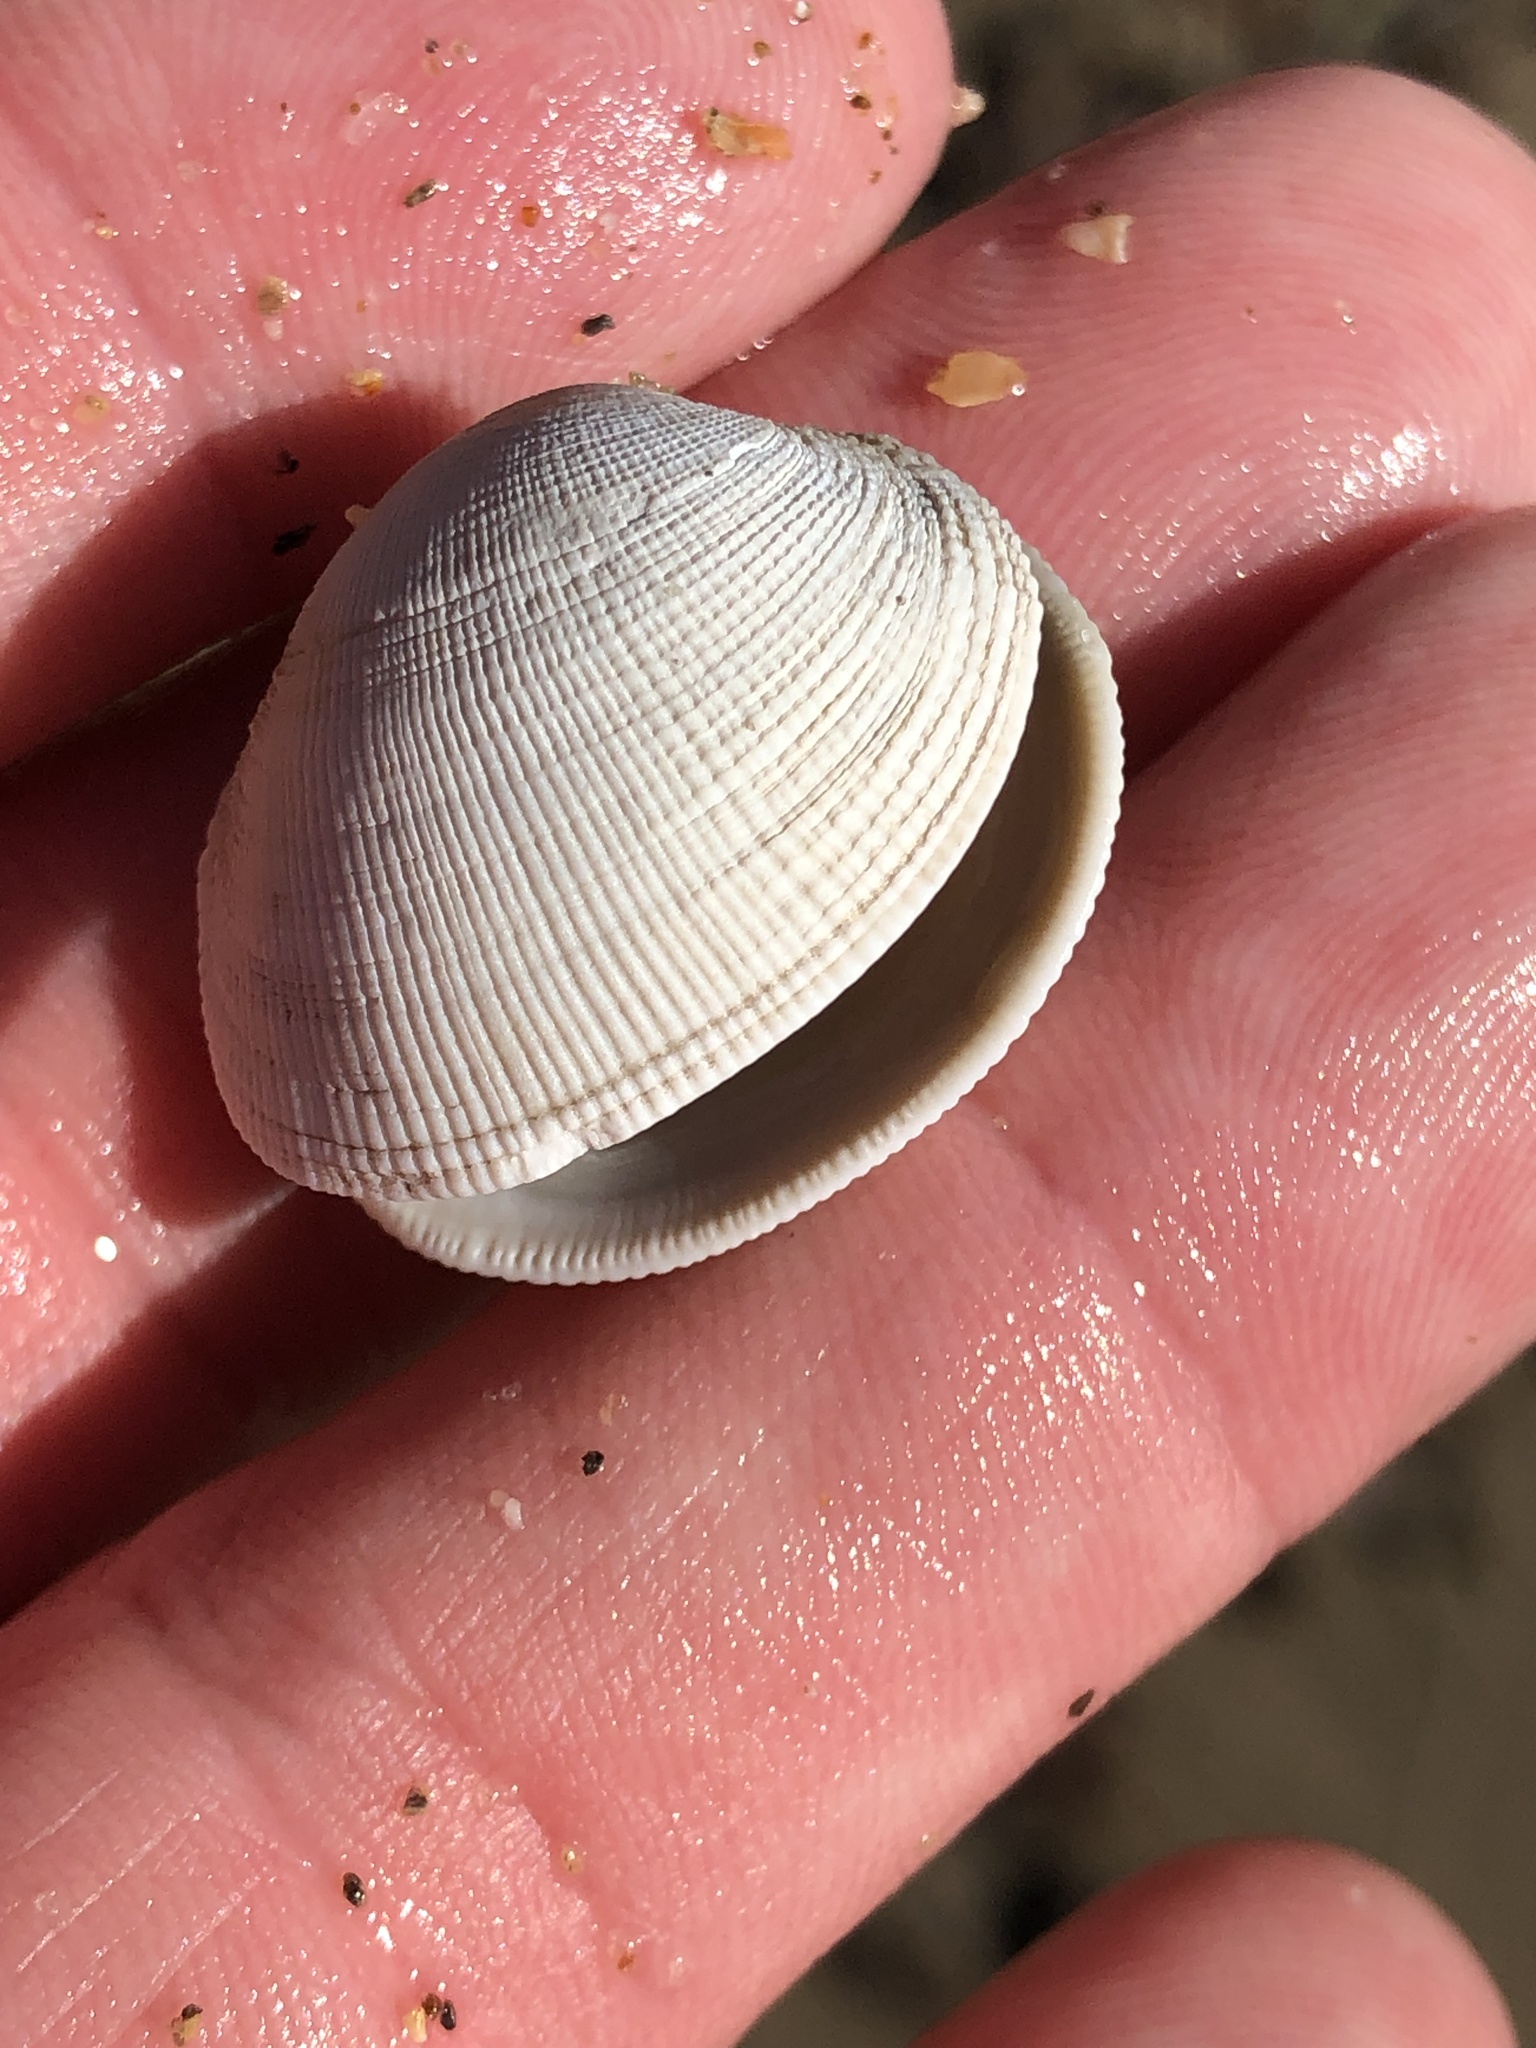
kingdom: Animalia
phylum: Mollusca
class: Bivalvia
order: Venerida
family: Veneridae
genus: Leukoma
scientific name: Leukoma staminea
